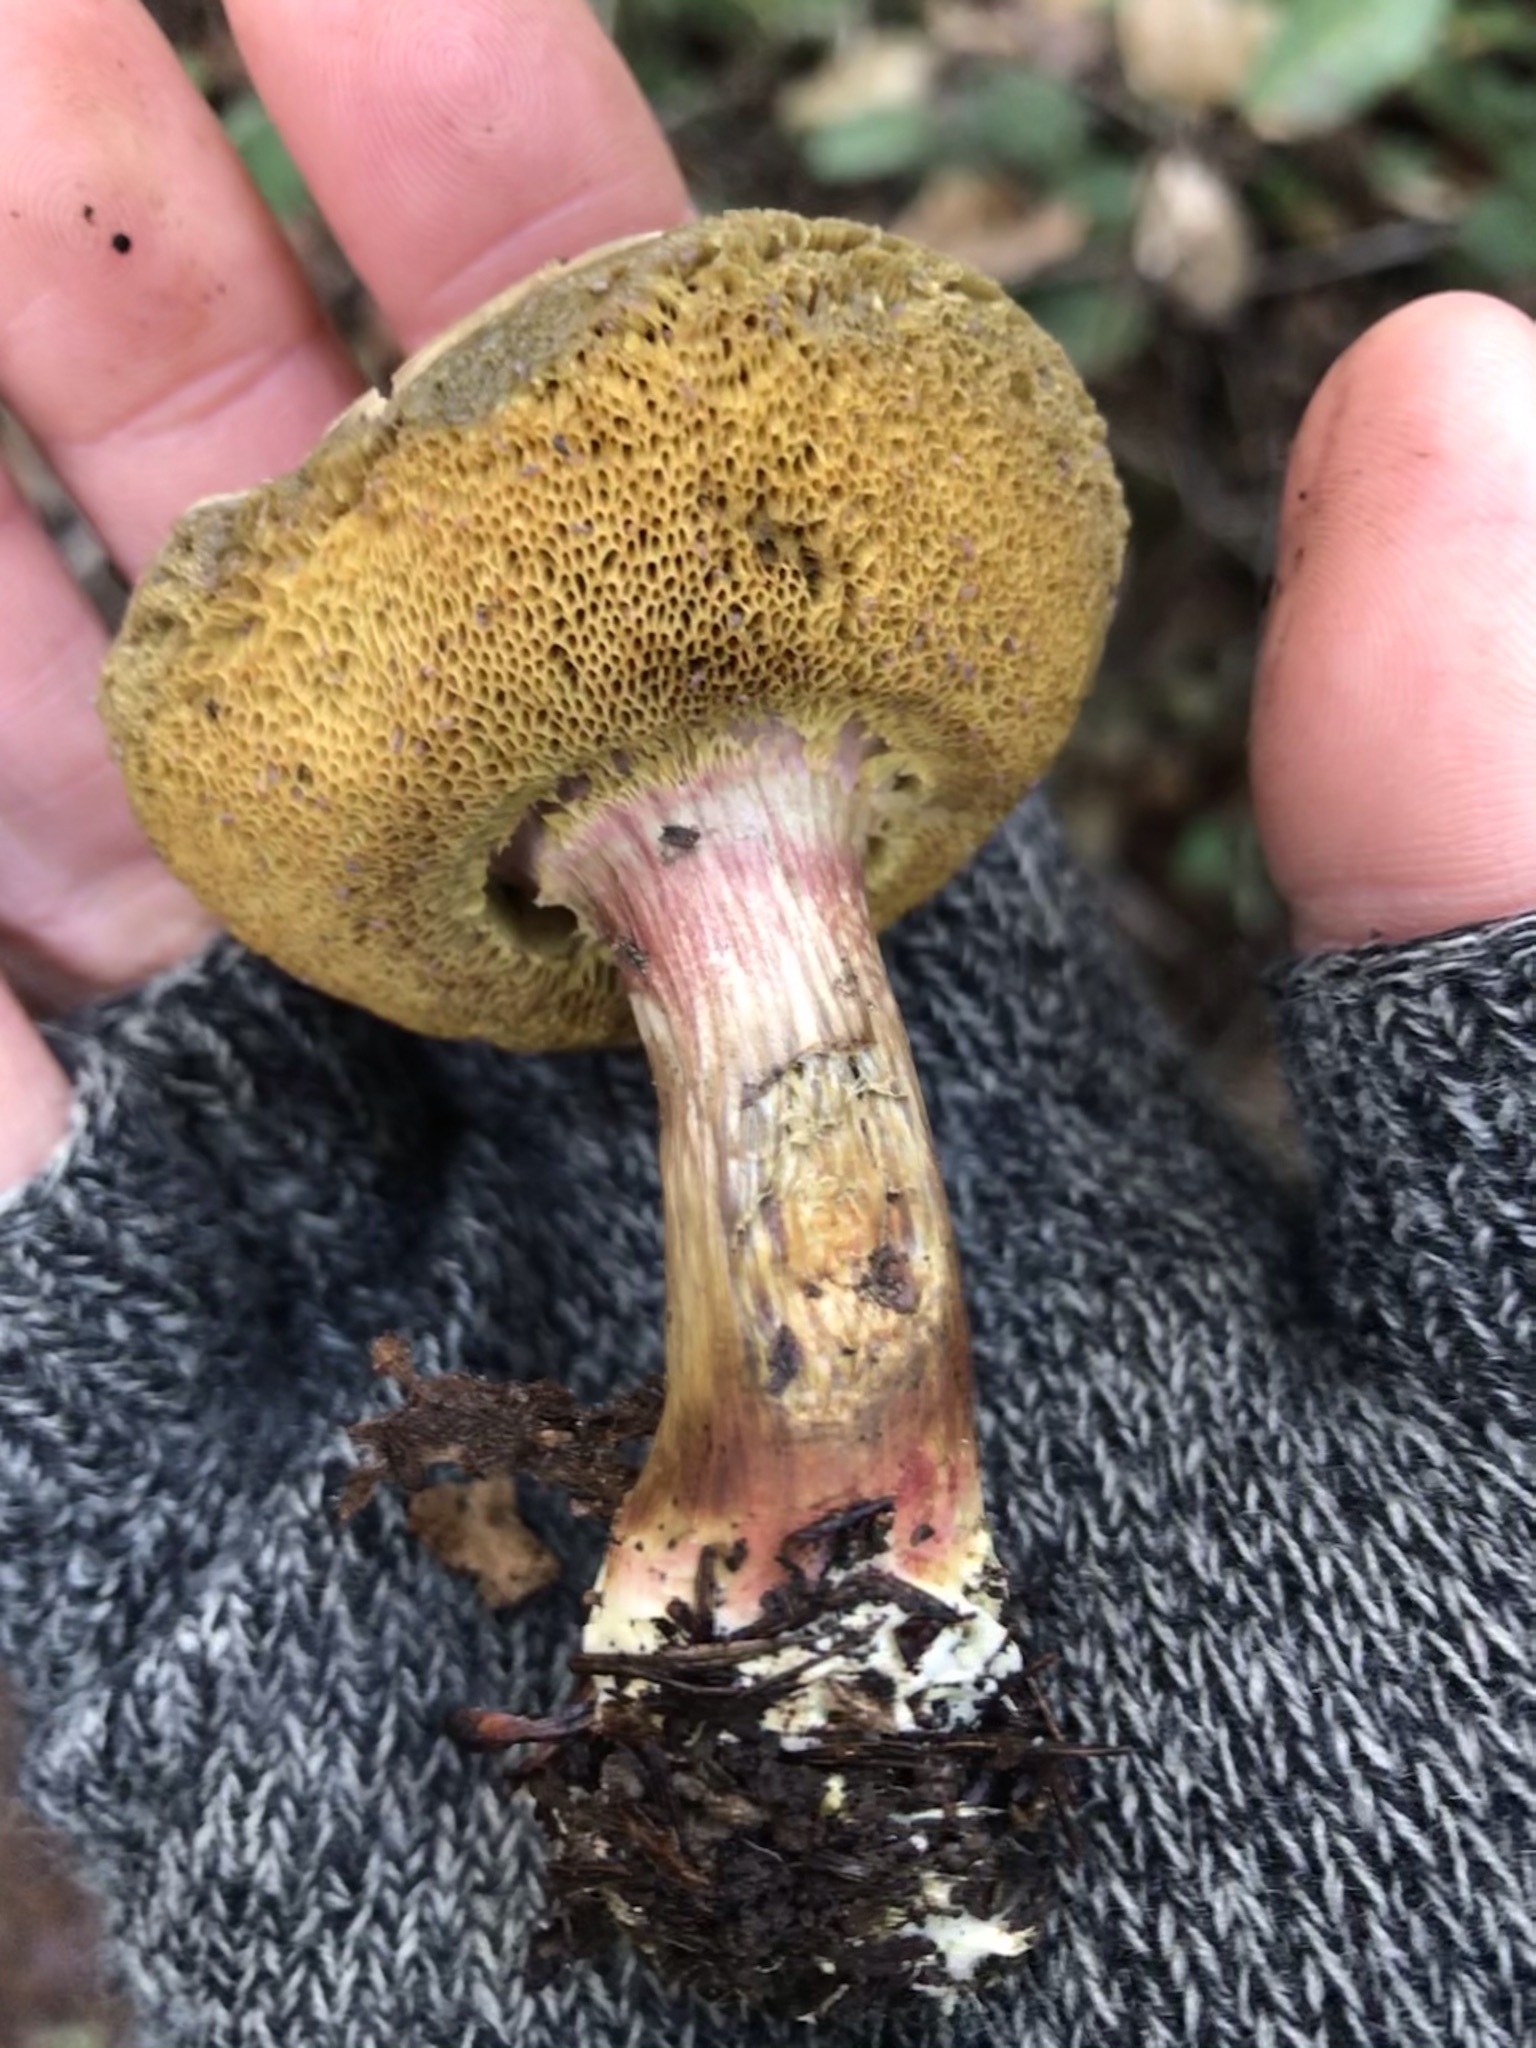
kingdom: Fungi
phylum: Basidiomycota
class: Agaricomycetes
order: Boletales
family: Boletaceae
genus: Xerocomellus
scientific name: Xerocomellus diffractus
